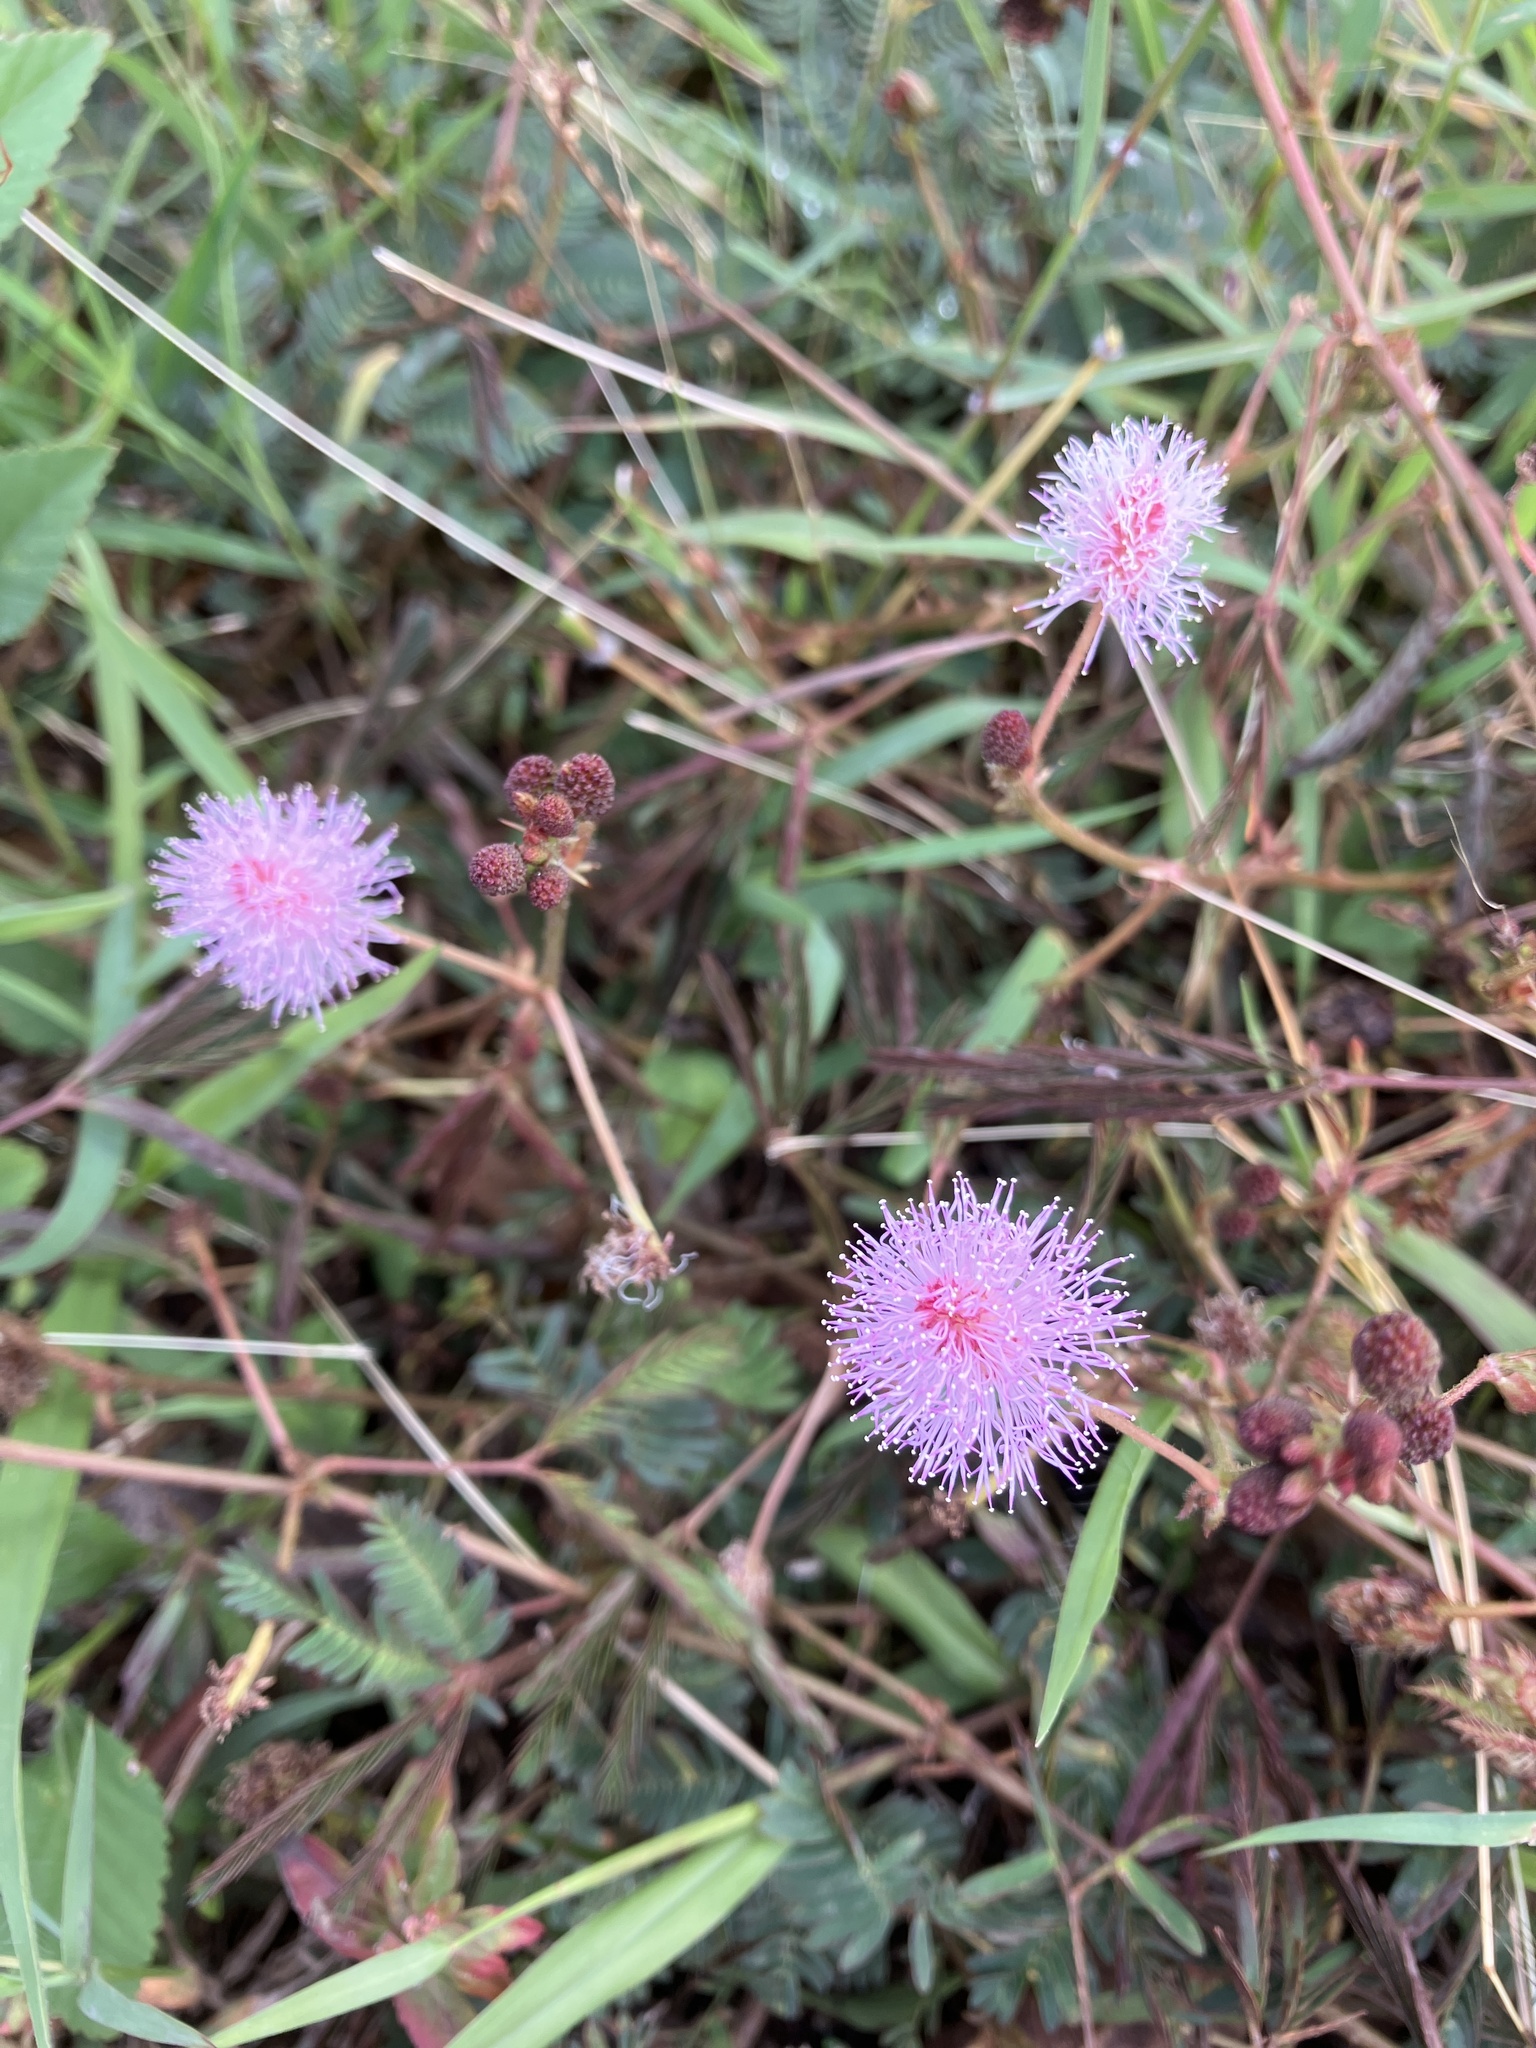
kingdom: Plantae
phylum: Tracheophyta
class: Magnoliopsida
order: Fabales
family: Fabaceae
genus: Mimosa
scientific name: Mimosa pudica
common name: Sensitive plant
